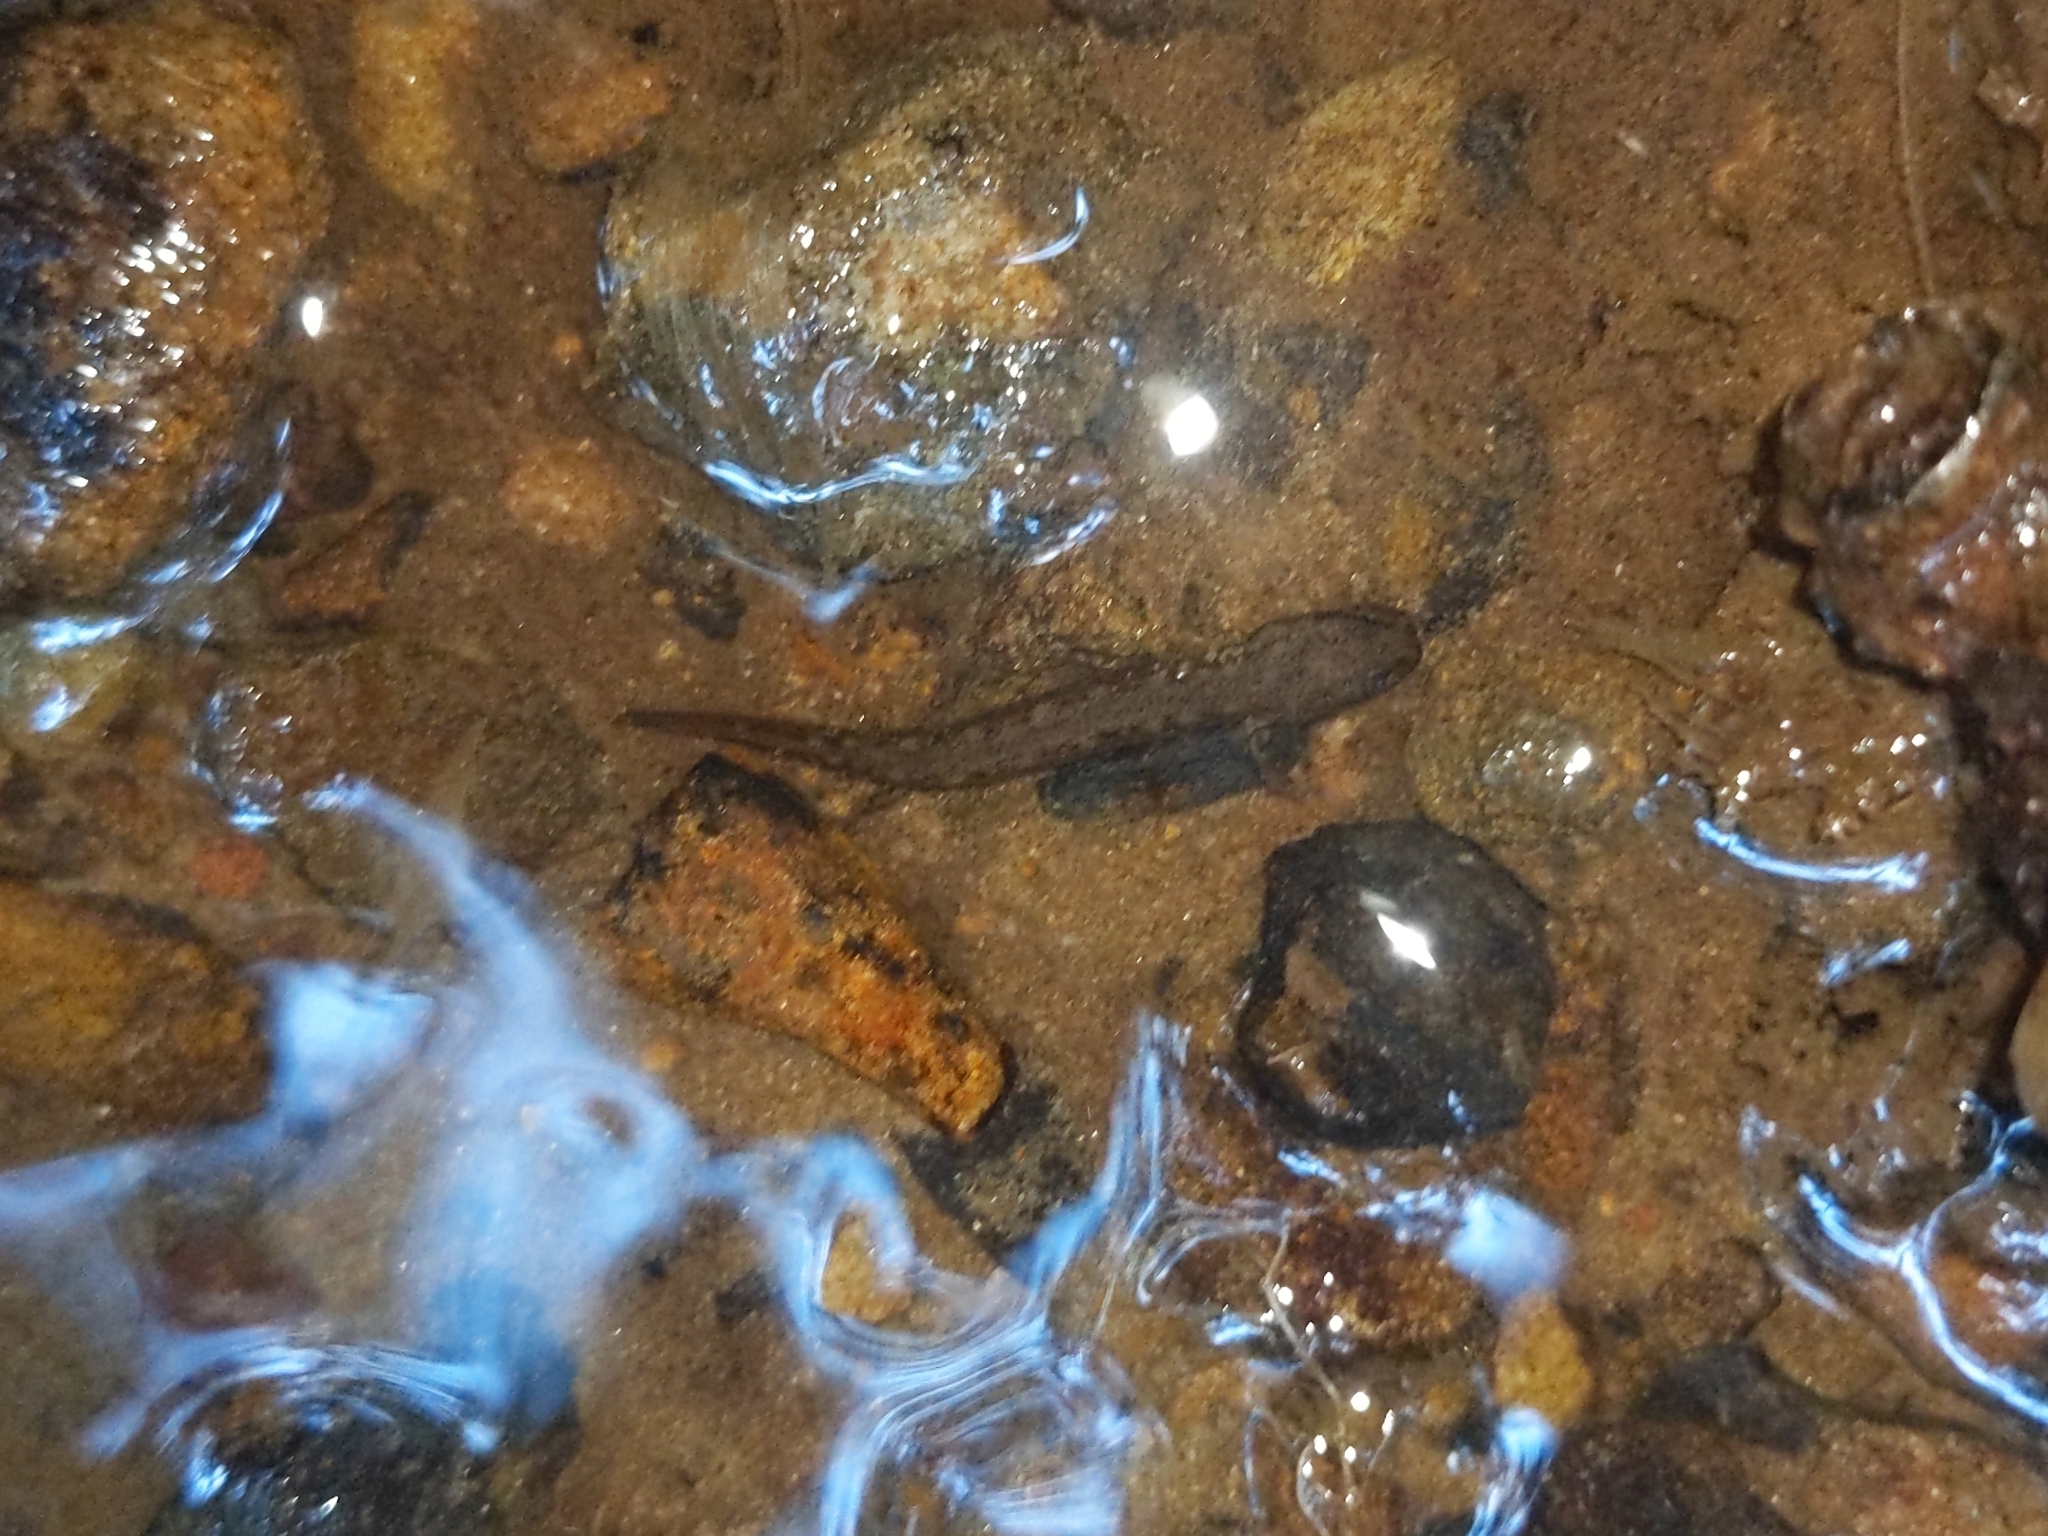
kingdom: Animalia
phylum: Chordata
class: Amphibia
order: Caudata
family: Plethodontidae
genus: Eurycea
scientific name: Eurycea bislineata
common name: Northern two-lined salamander
